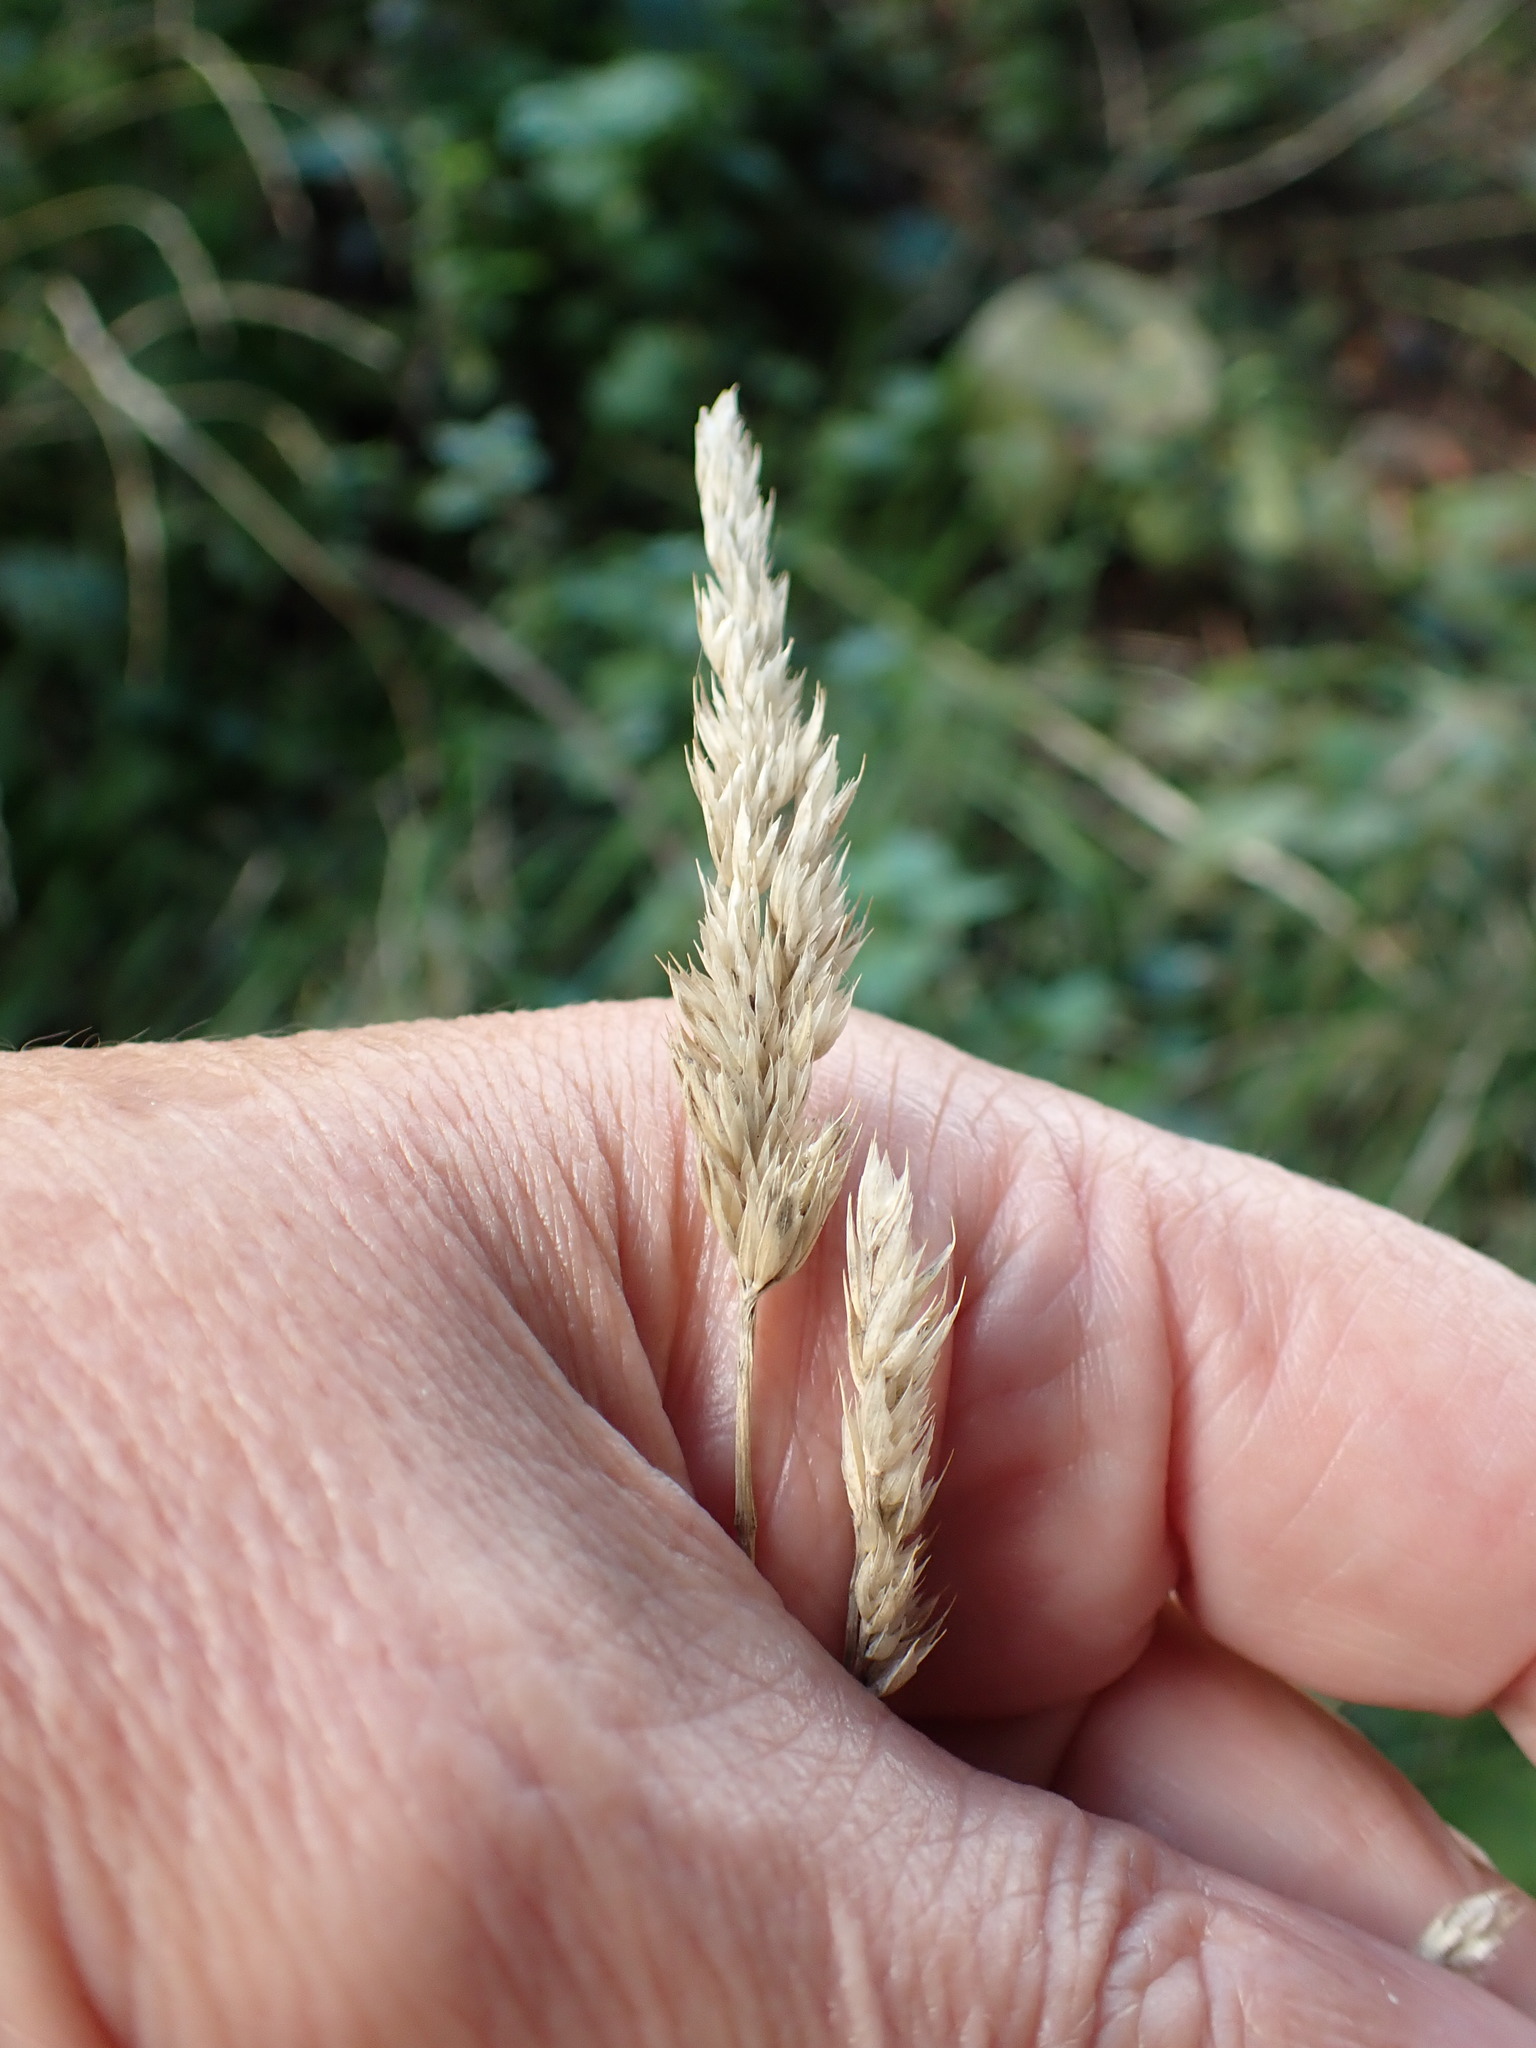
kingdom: Plantae
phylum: Tracheophyta
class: Liliopsida
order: Poales
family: Poaceae
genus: Dactylis
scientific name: Dactylis glomerata
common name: Orchardgrass
